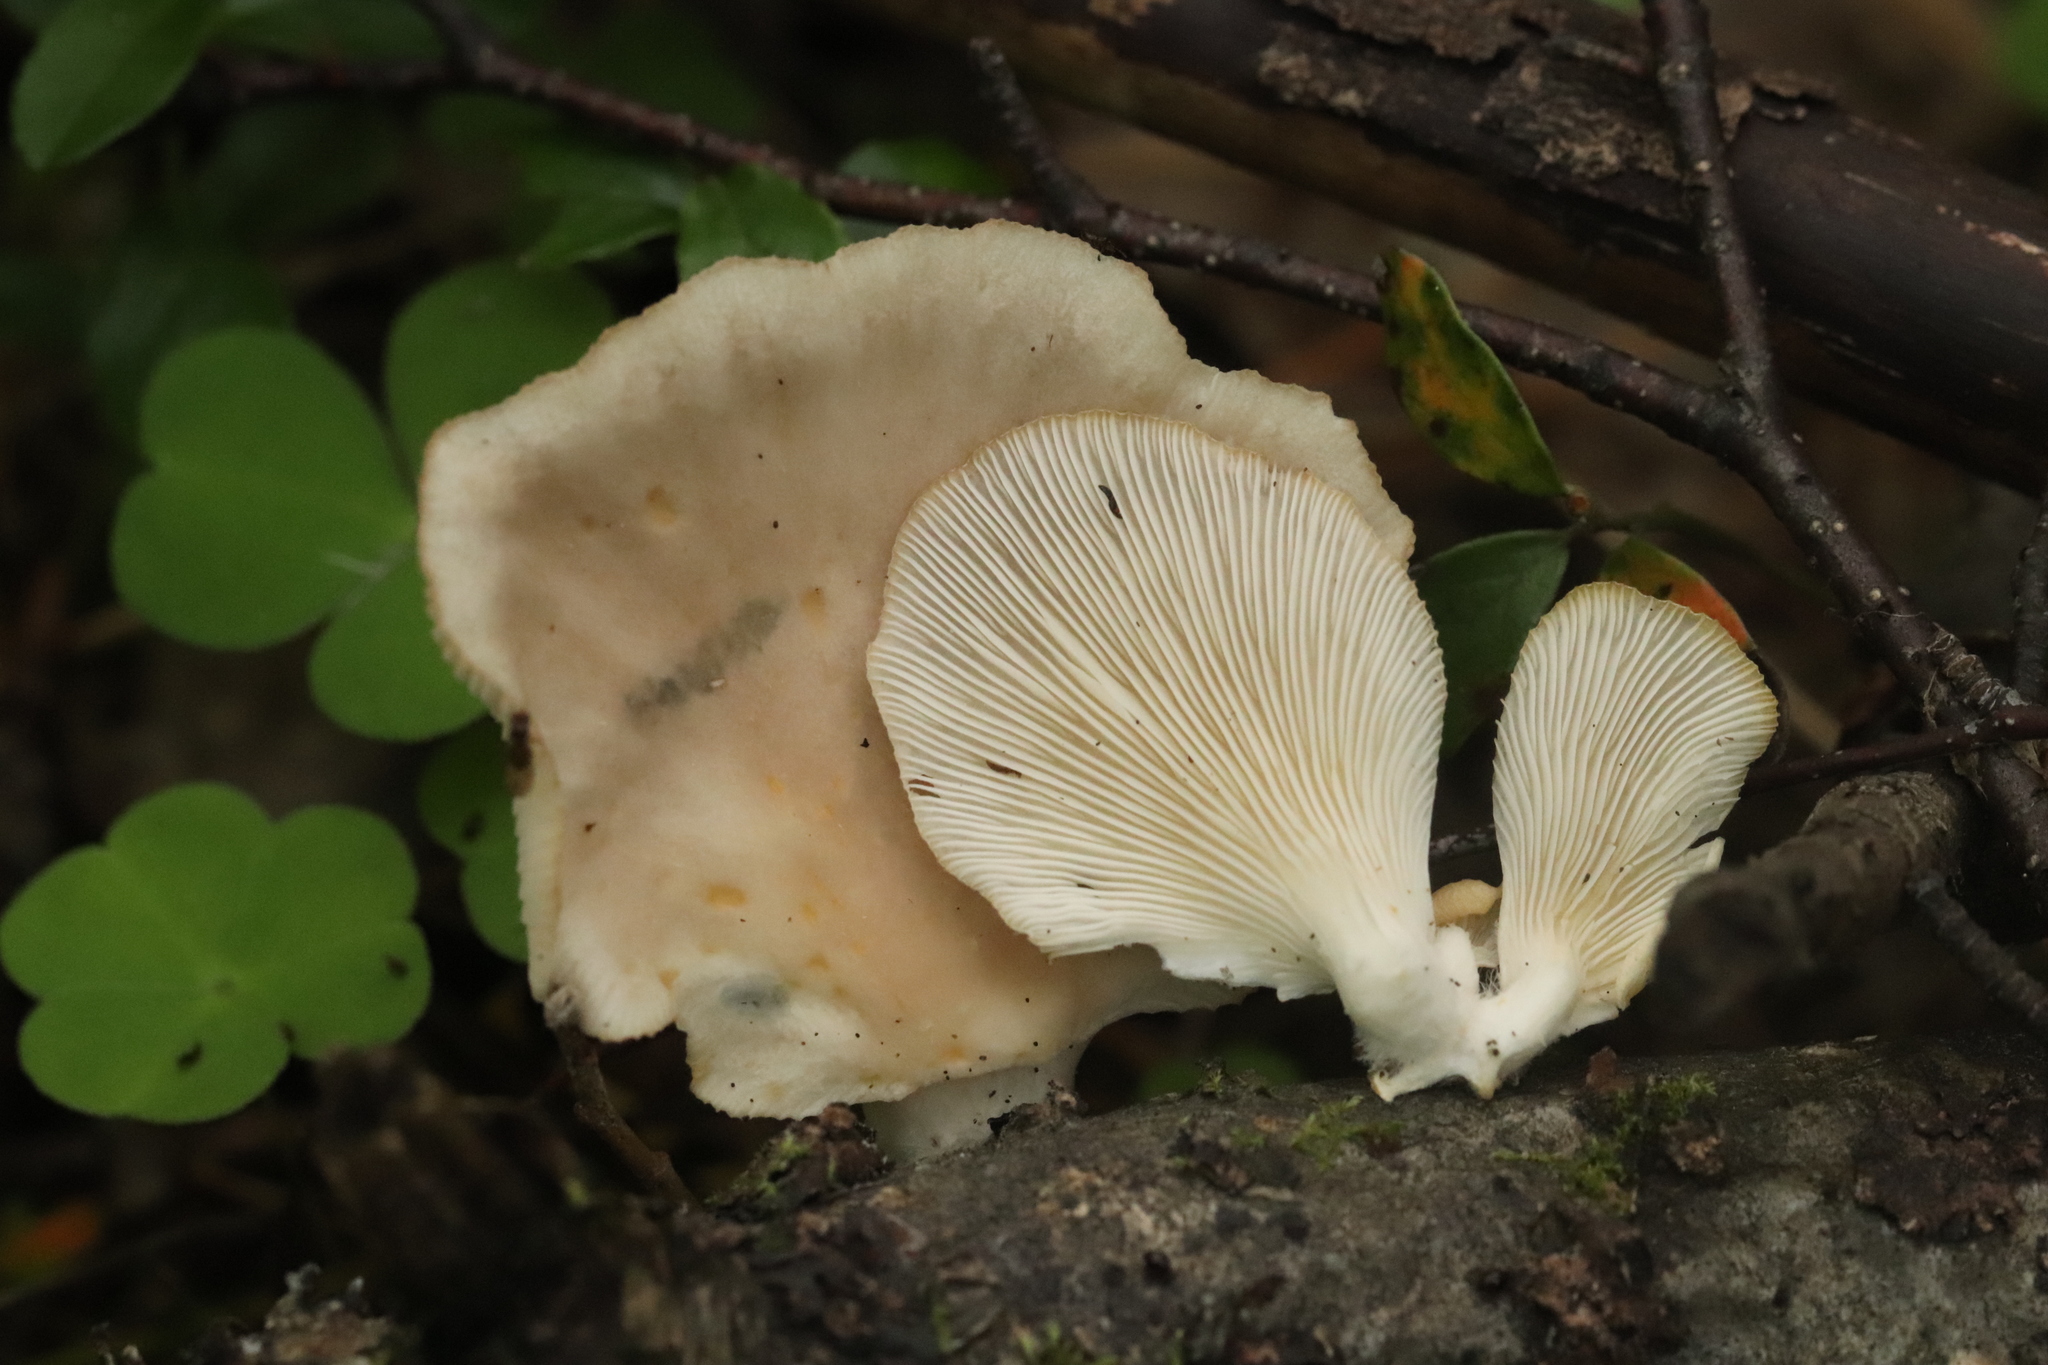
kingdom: Fungi
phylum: Basidiomycota
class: Agaricomycetes
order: Agaricales
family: Pleurotaceae
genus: Pleurotus
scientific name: Pleurotus pulmonarius
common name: Pale oyster
